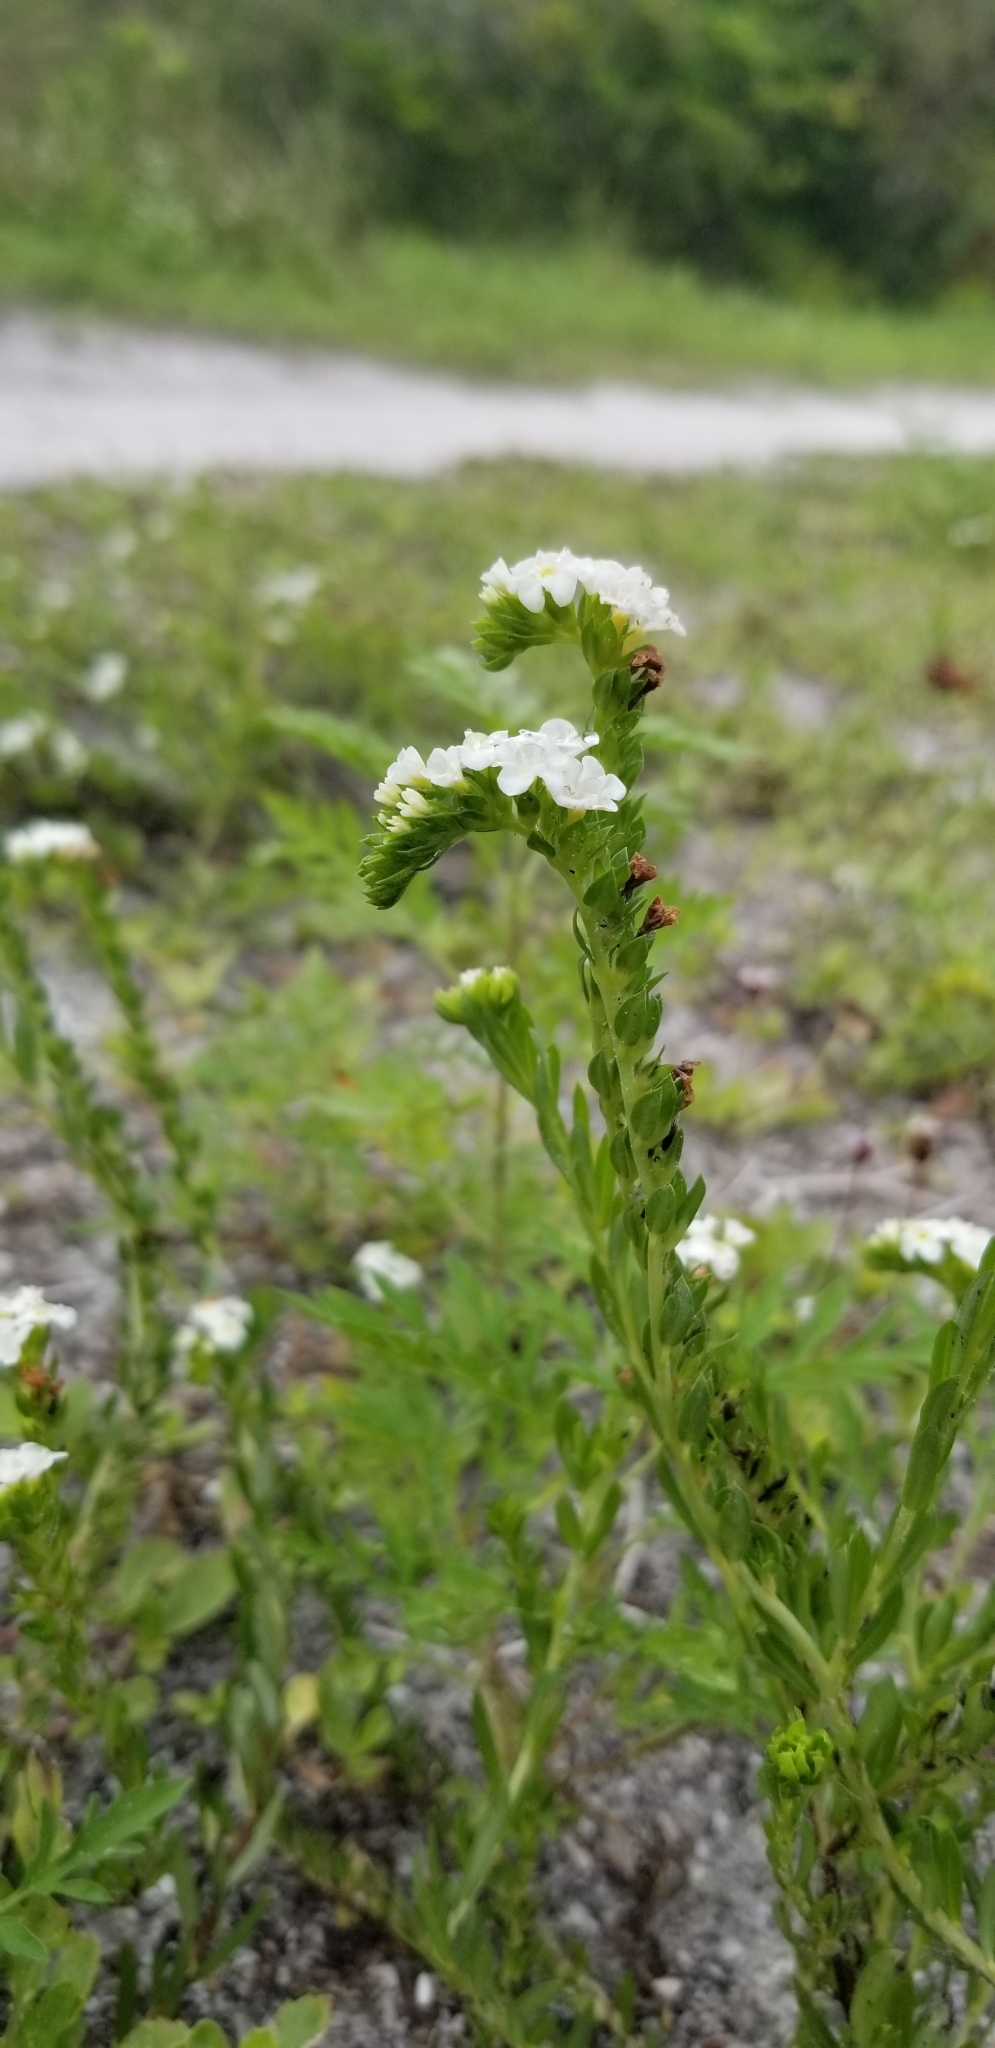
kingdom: Plantae
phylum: Tracheophyta
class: Magnoliopsida
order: Boraginales
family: Heliotropiaceae
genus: Euploca
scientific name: Euploca polyphylla
